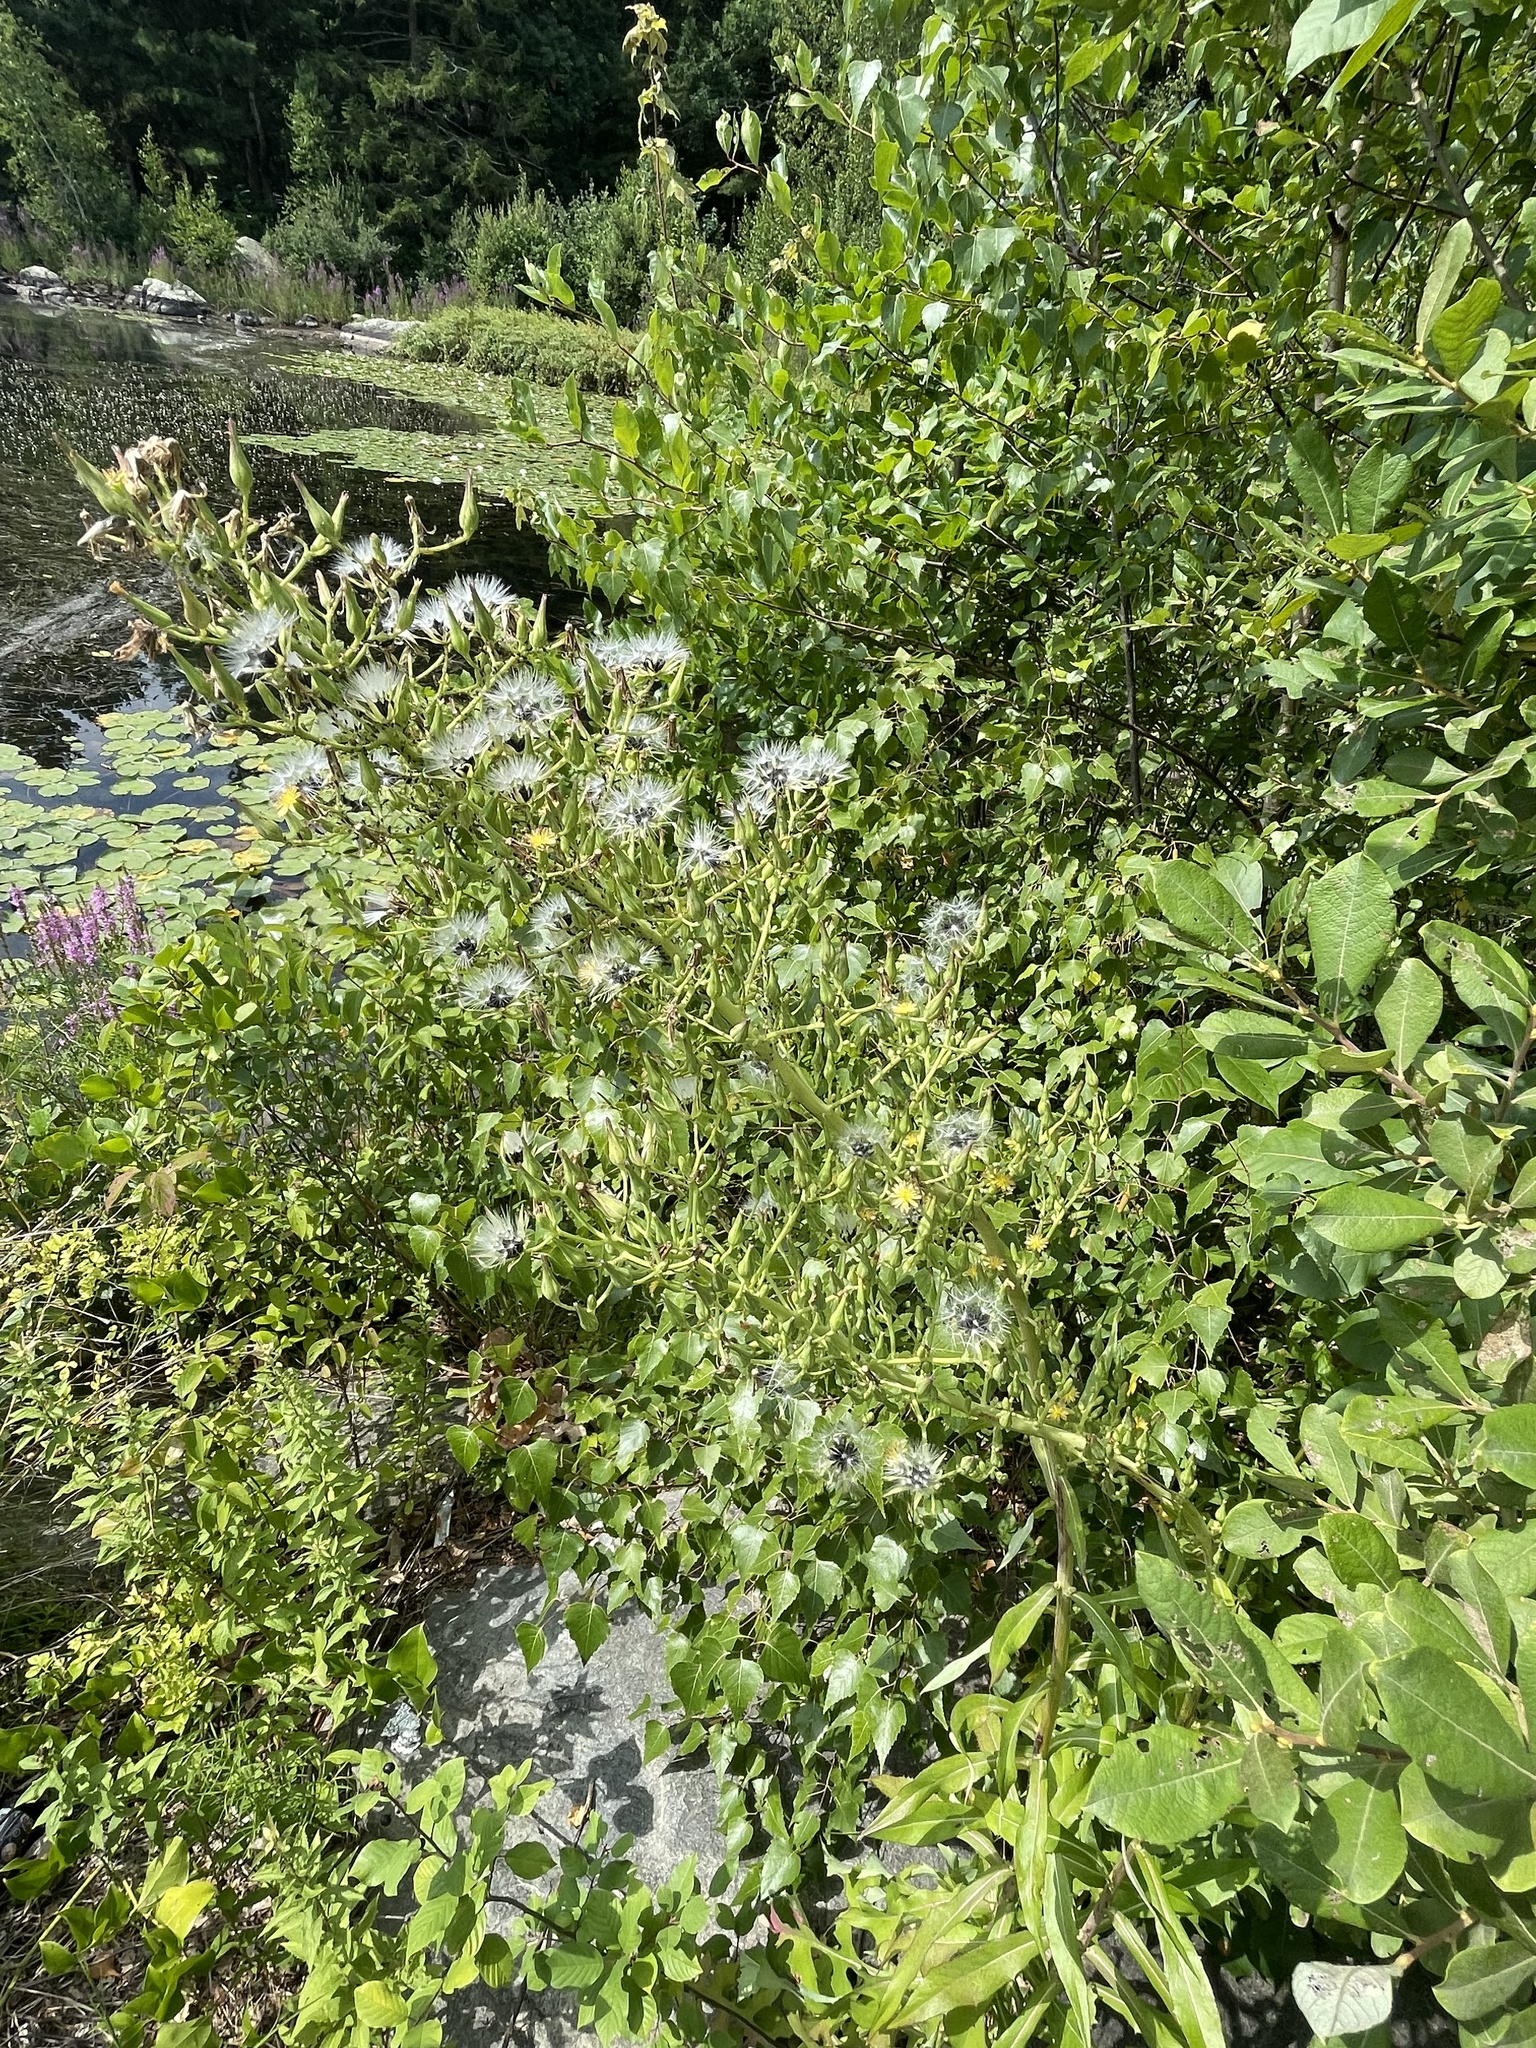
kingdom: Plantae
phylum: Tracheophyta
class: Magnoliopsida
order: Asterales
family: Asteraceae
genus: Lactuca
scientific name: Lactuca canadensis
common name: Canada lettuce
